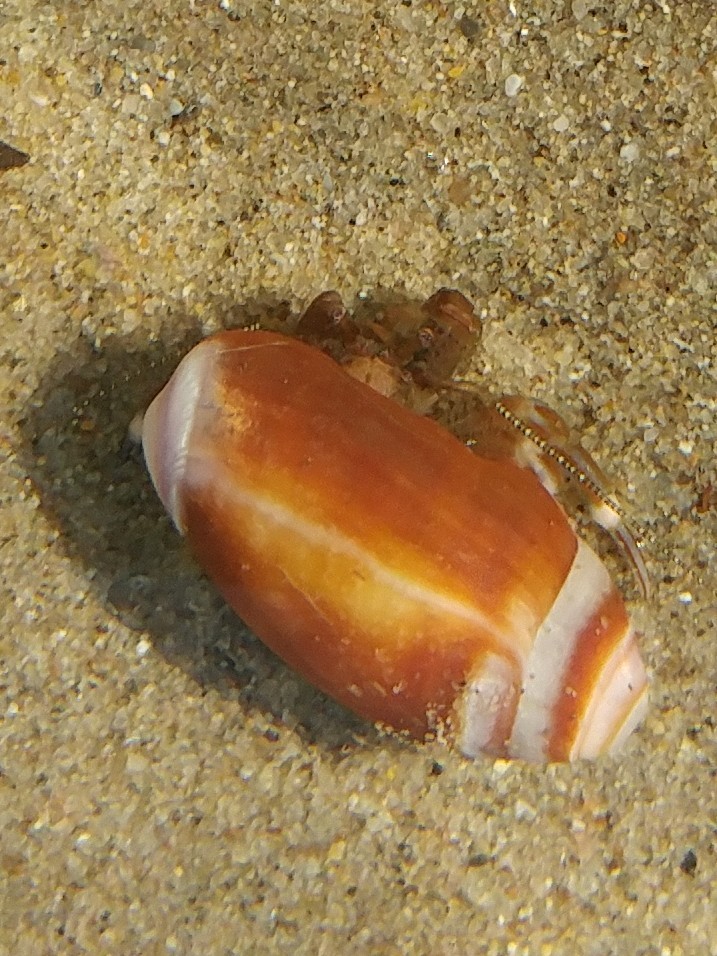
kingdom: Animalia
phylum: Mollusca
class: Gastropoda
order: Neogastropoda
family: Olividae
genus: Callianax
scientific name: Callianax biplicata
